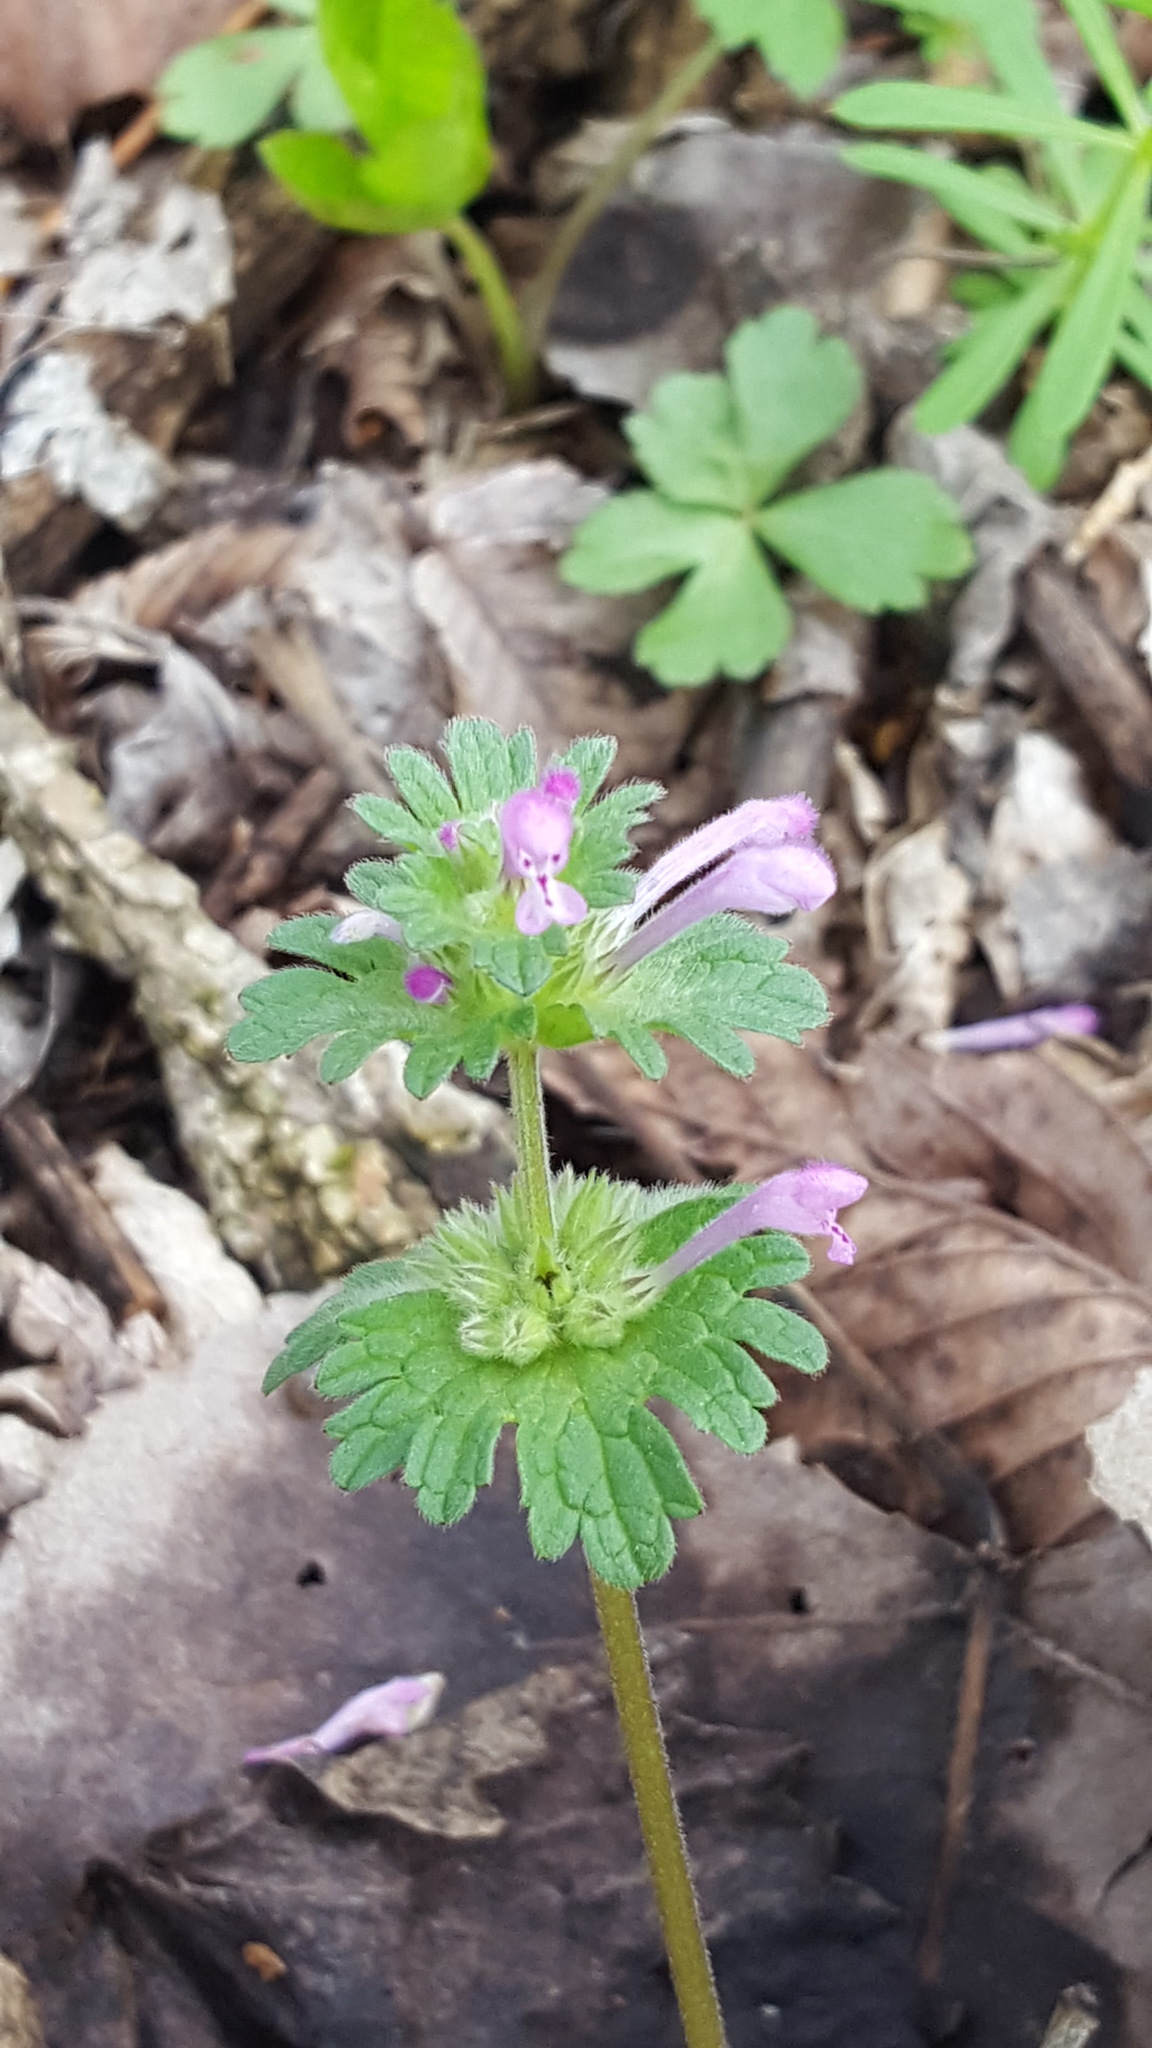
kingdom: Plantae
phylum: Tracheophyta
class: Magnoliopsida
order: Lamiales
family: Lamiaceae
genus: Lamium
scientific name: Lamium amplexicaule
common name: Henbit dead-nettle
